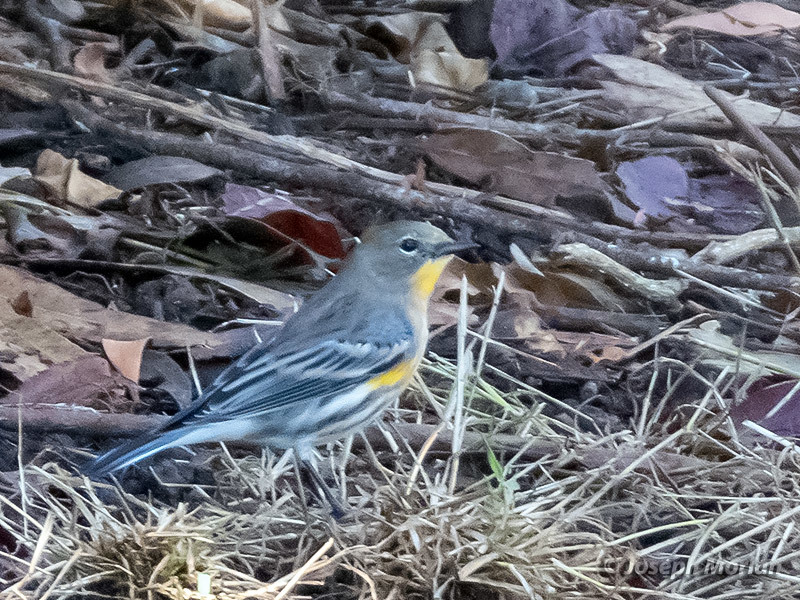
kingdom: Animalia
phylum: Chordata
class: Aves
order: Passeriformes
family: Parulidae
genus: Setophaga
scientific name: Setophaga coronata
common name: Myrtle warbler
